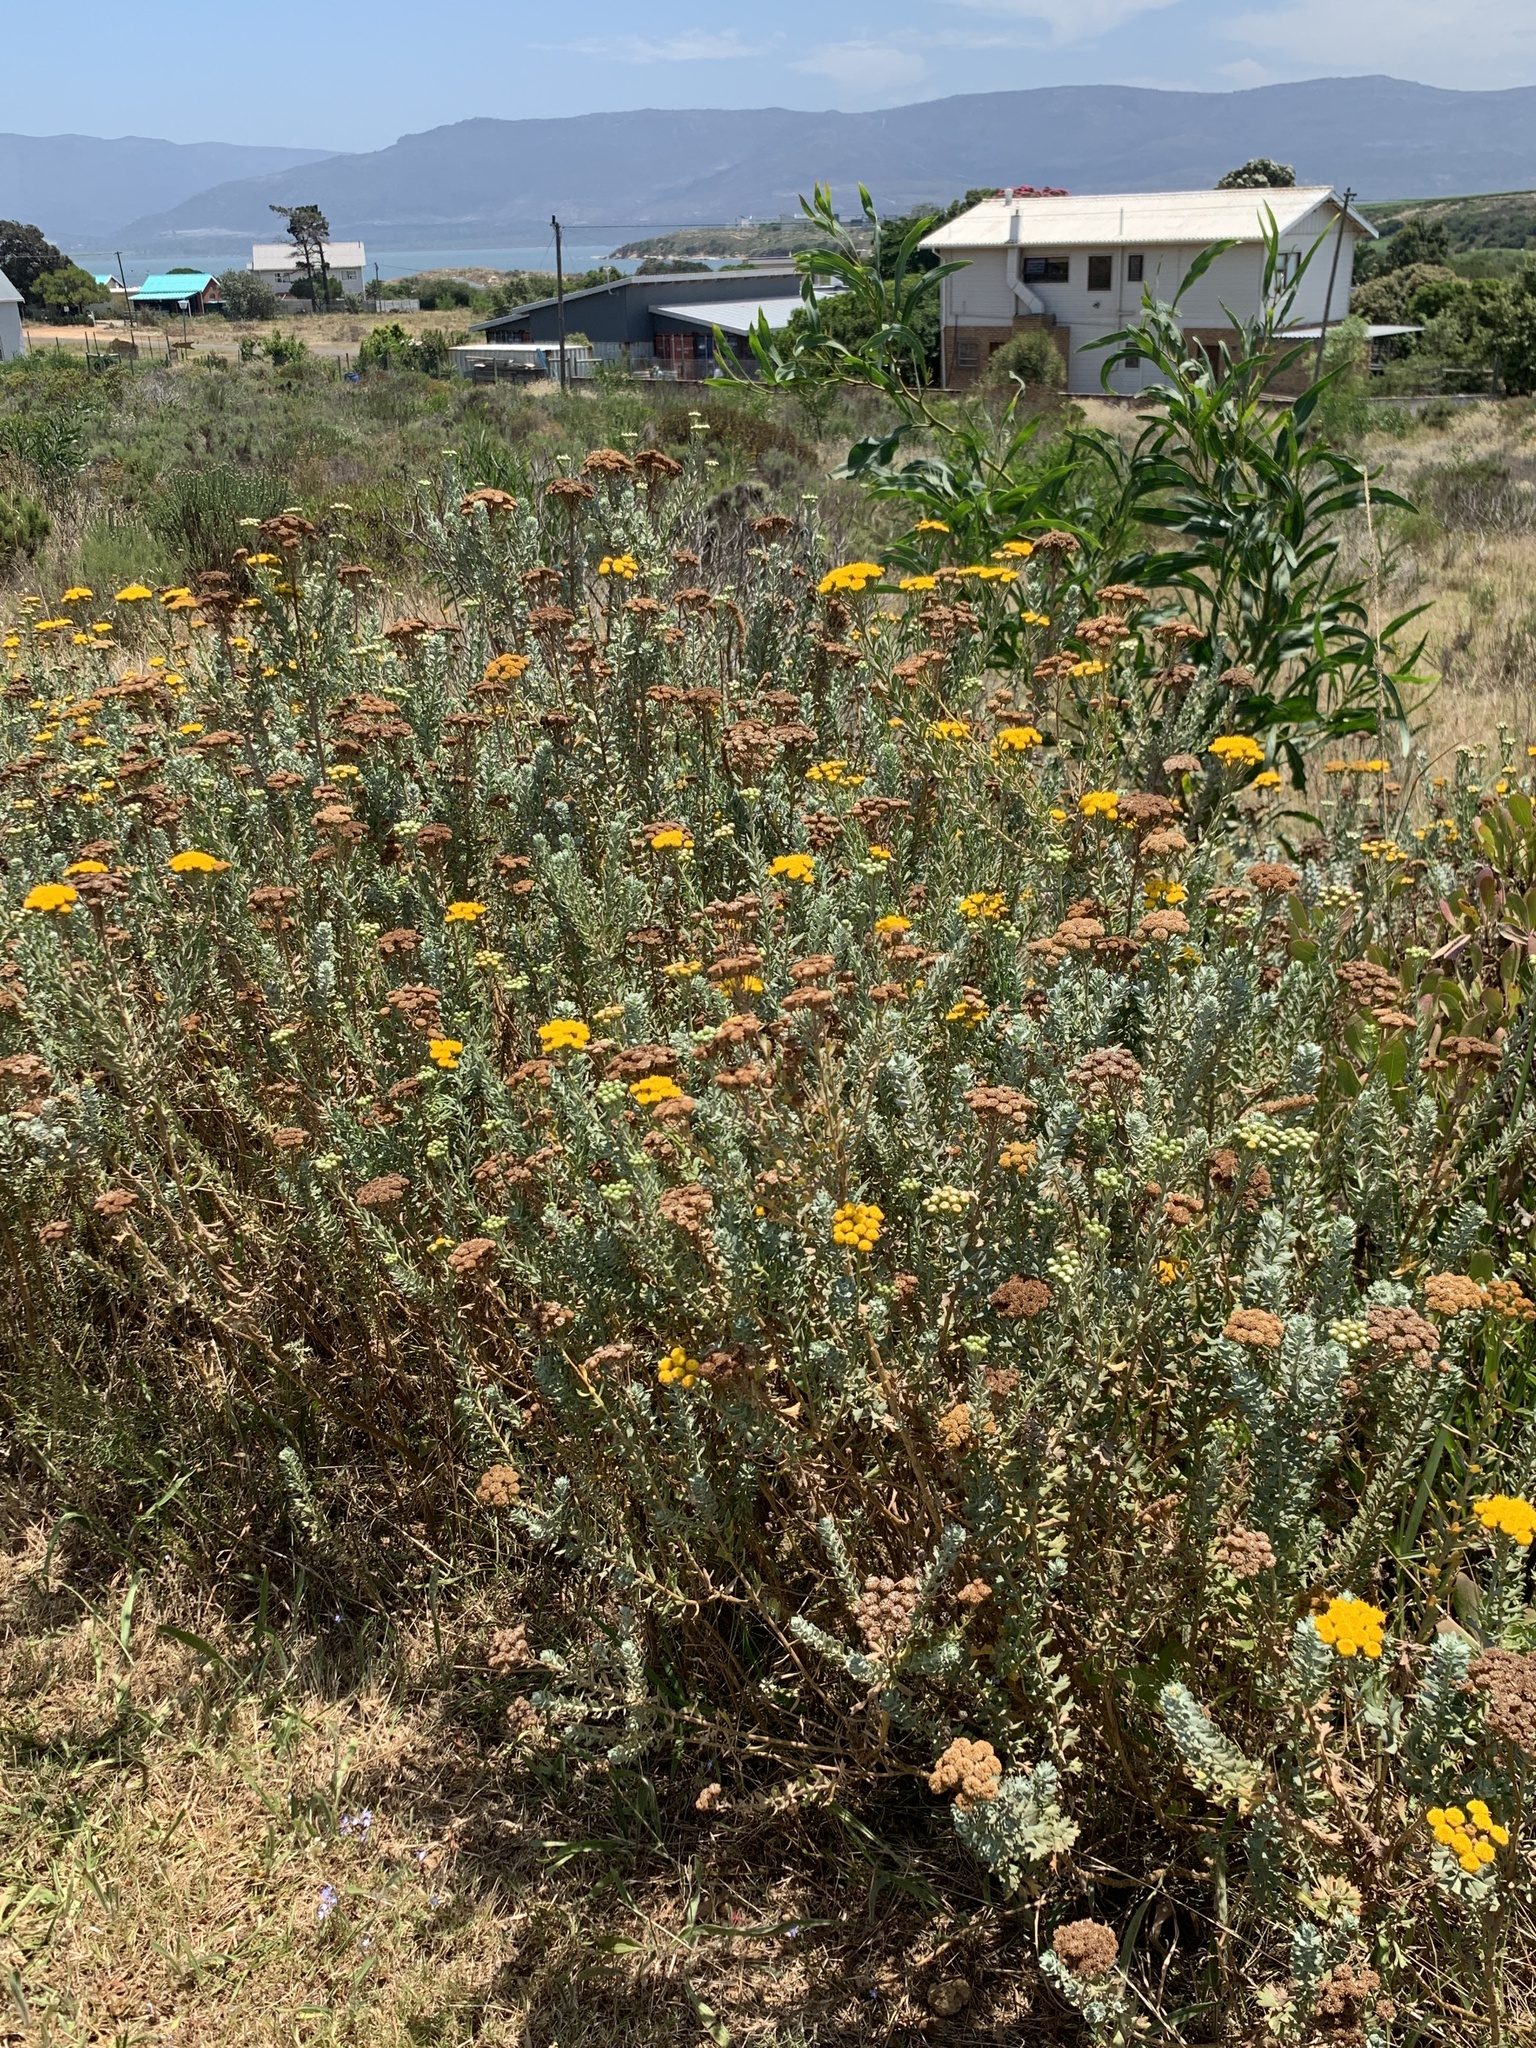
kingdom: Plantae
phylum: Tracheophyta
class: Magnoliopsida
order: Asterales
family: Asteraceae
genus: Athanasia
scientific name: Athanasia trifurcata
